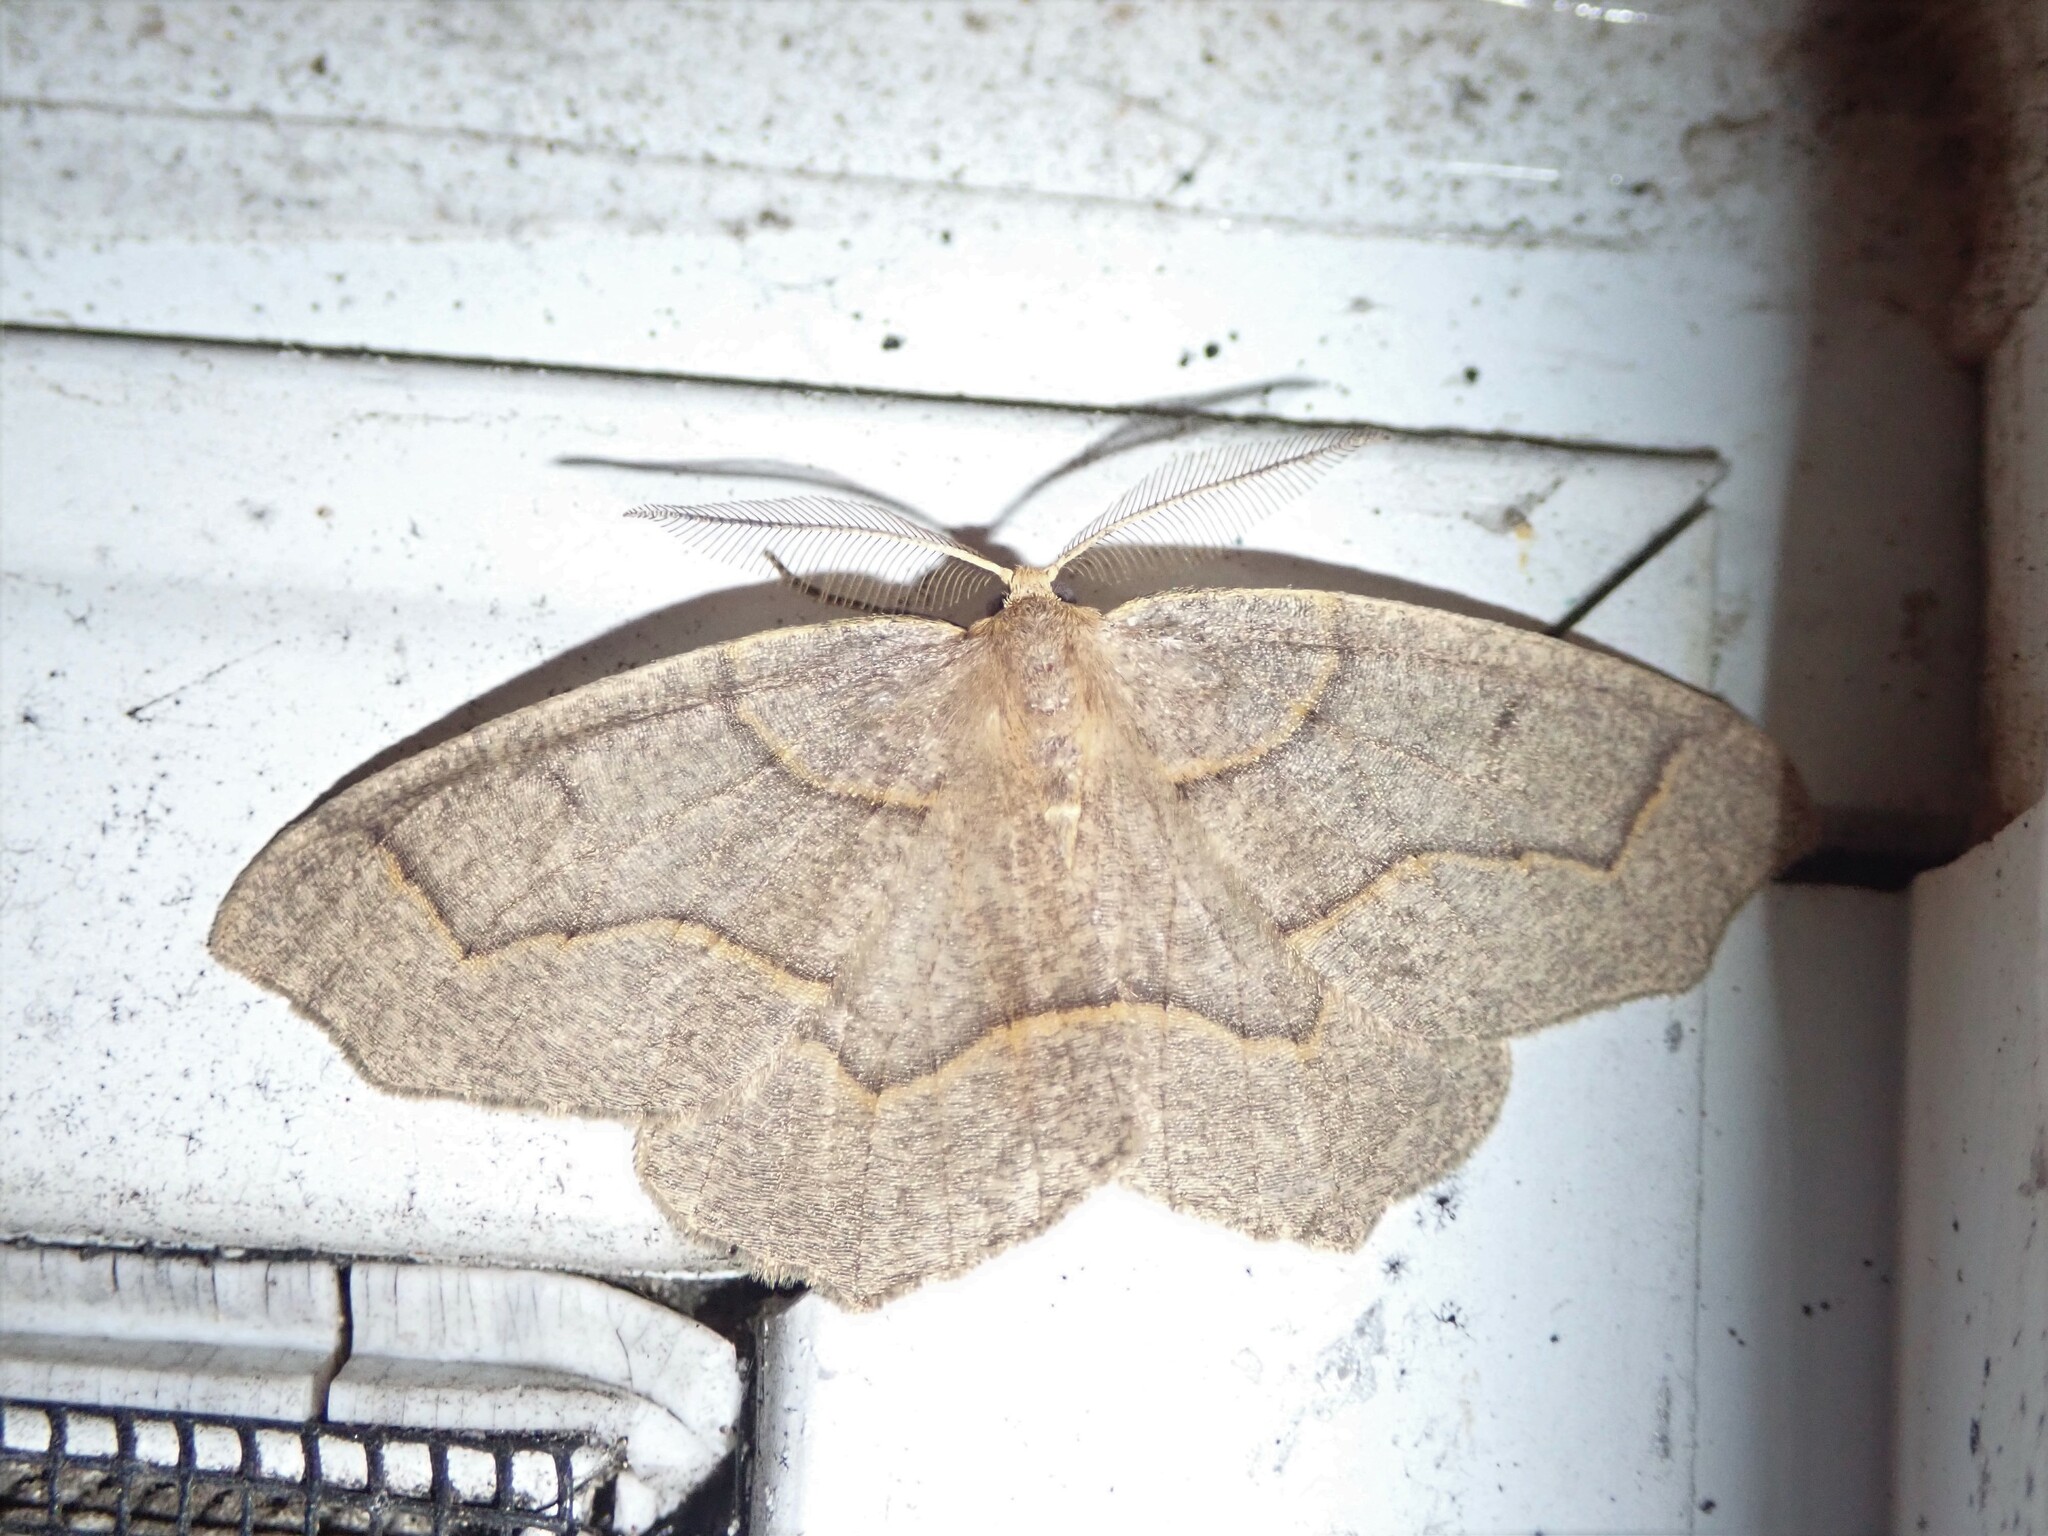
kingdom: Animalia
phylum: Arthropoda
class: Insecta
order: Lepidoptera
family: Geometridae
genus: Lambdina
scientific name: Lambdina fiscellaria
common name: Hemlock looper
